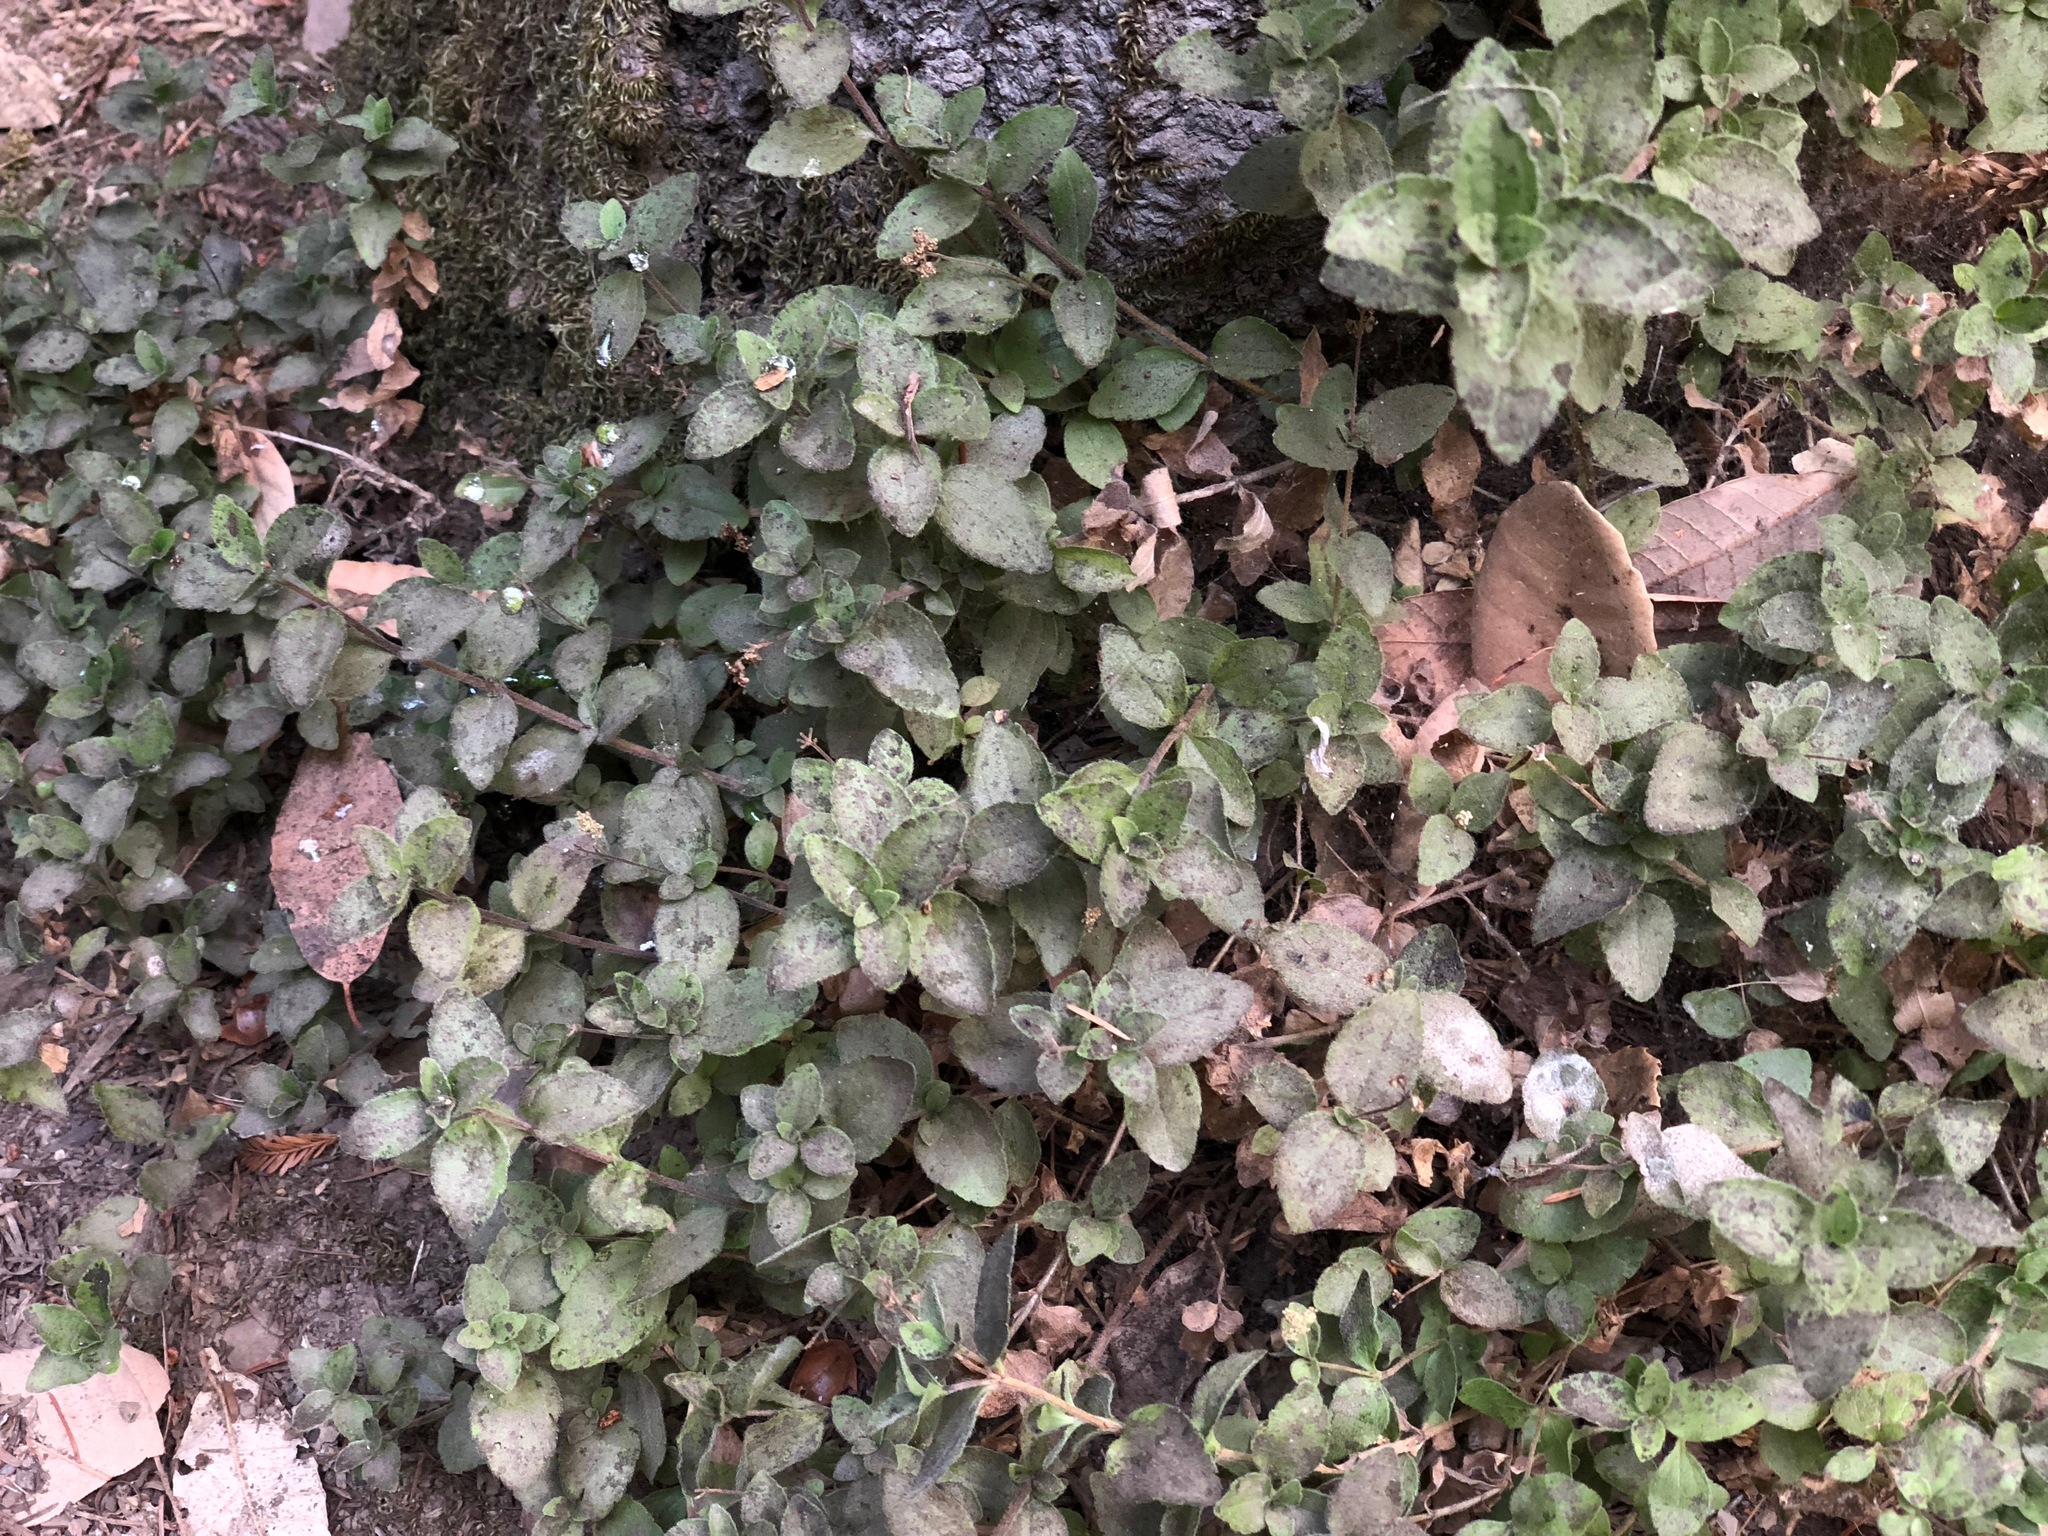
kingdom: Plantae
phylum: Tracheophyta
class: Magnoliopsida
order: Cornales
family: Hydrangeaceae
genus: Whipplea
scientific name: Whipplea modesta
